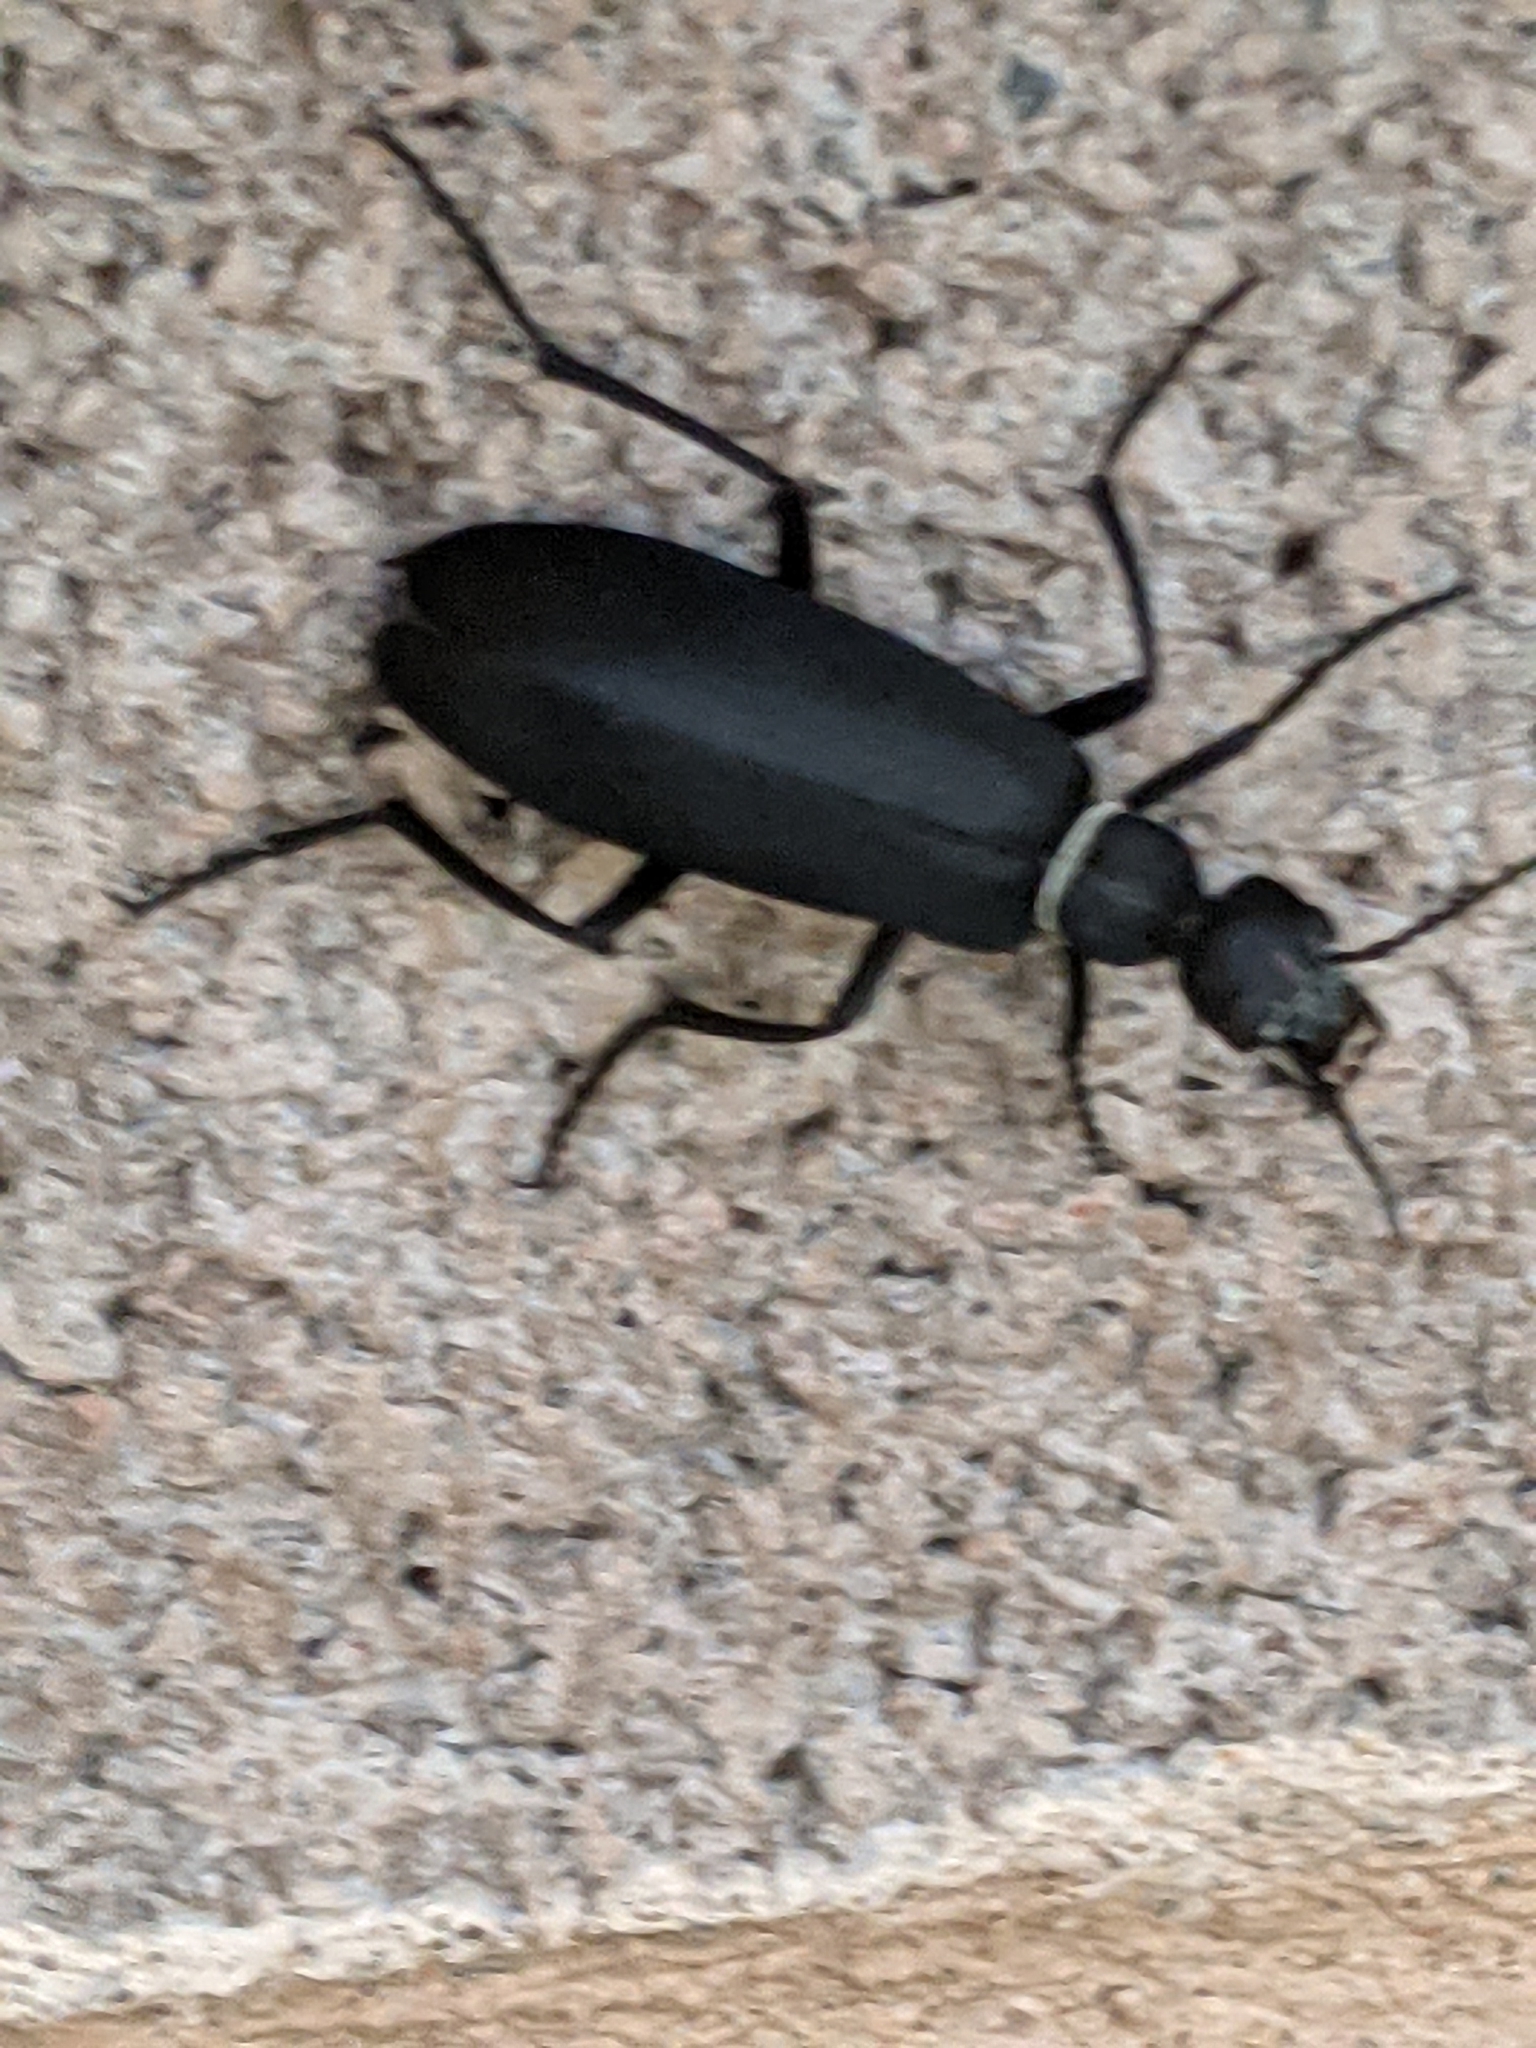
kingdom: Animalia
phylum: Arthropoda
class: Insecta
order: Coleoptera
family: Meloidae
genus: Epicauta
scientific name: Epicauta segmenta
